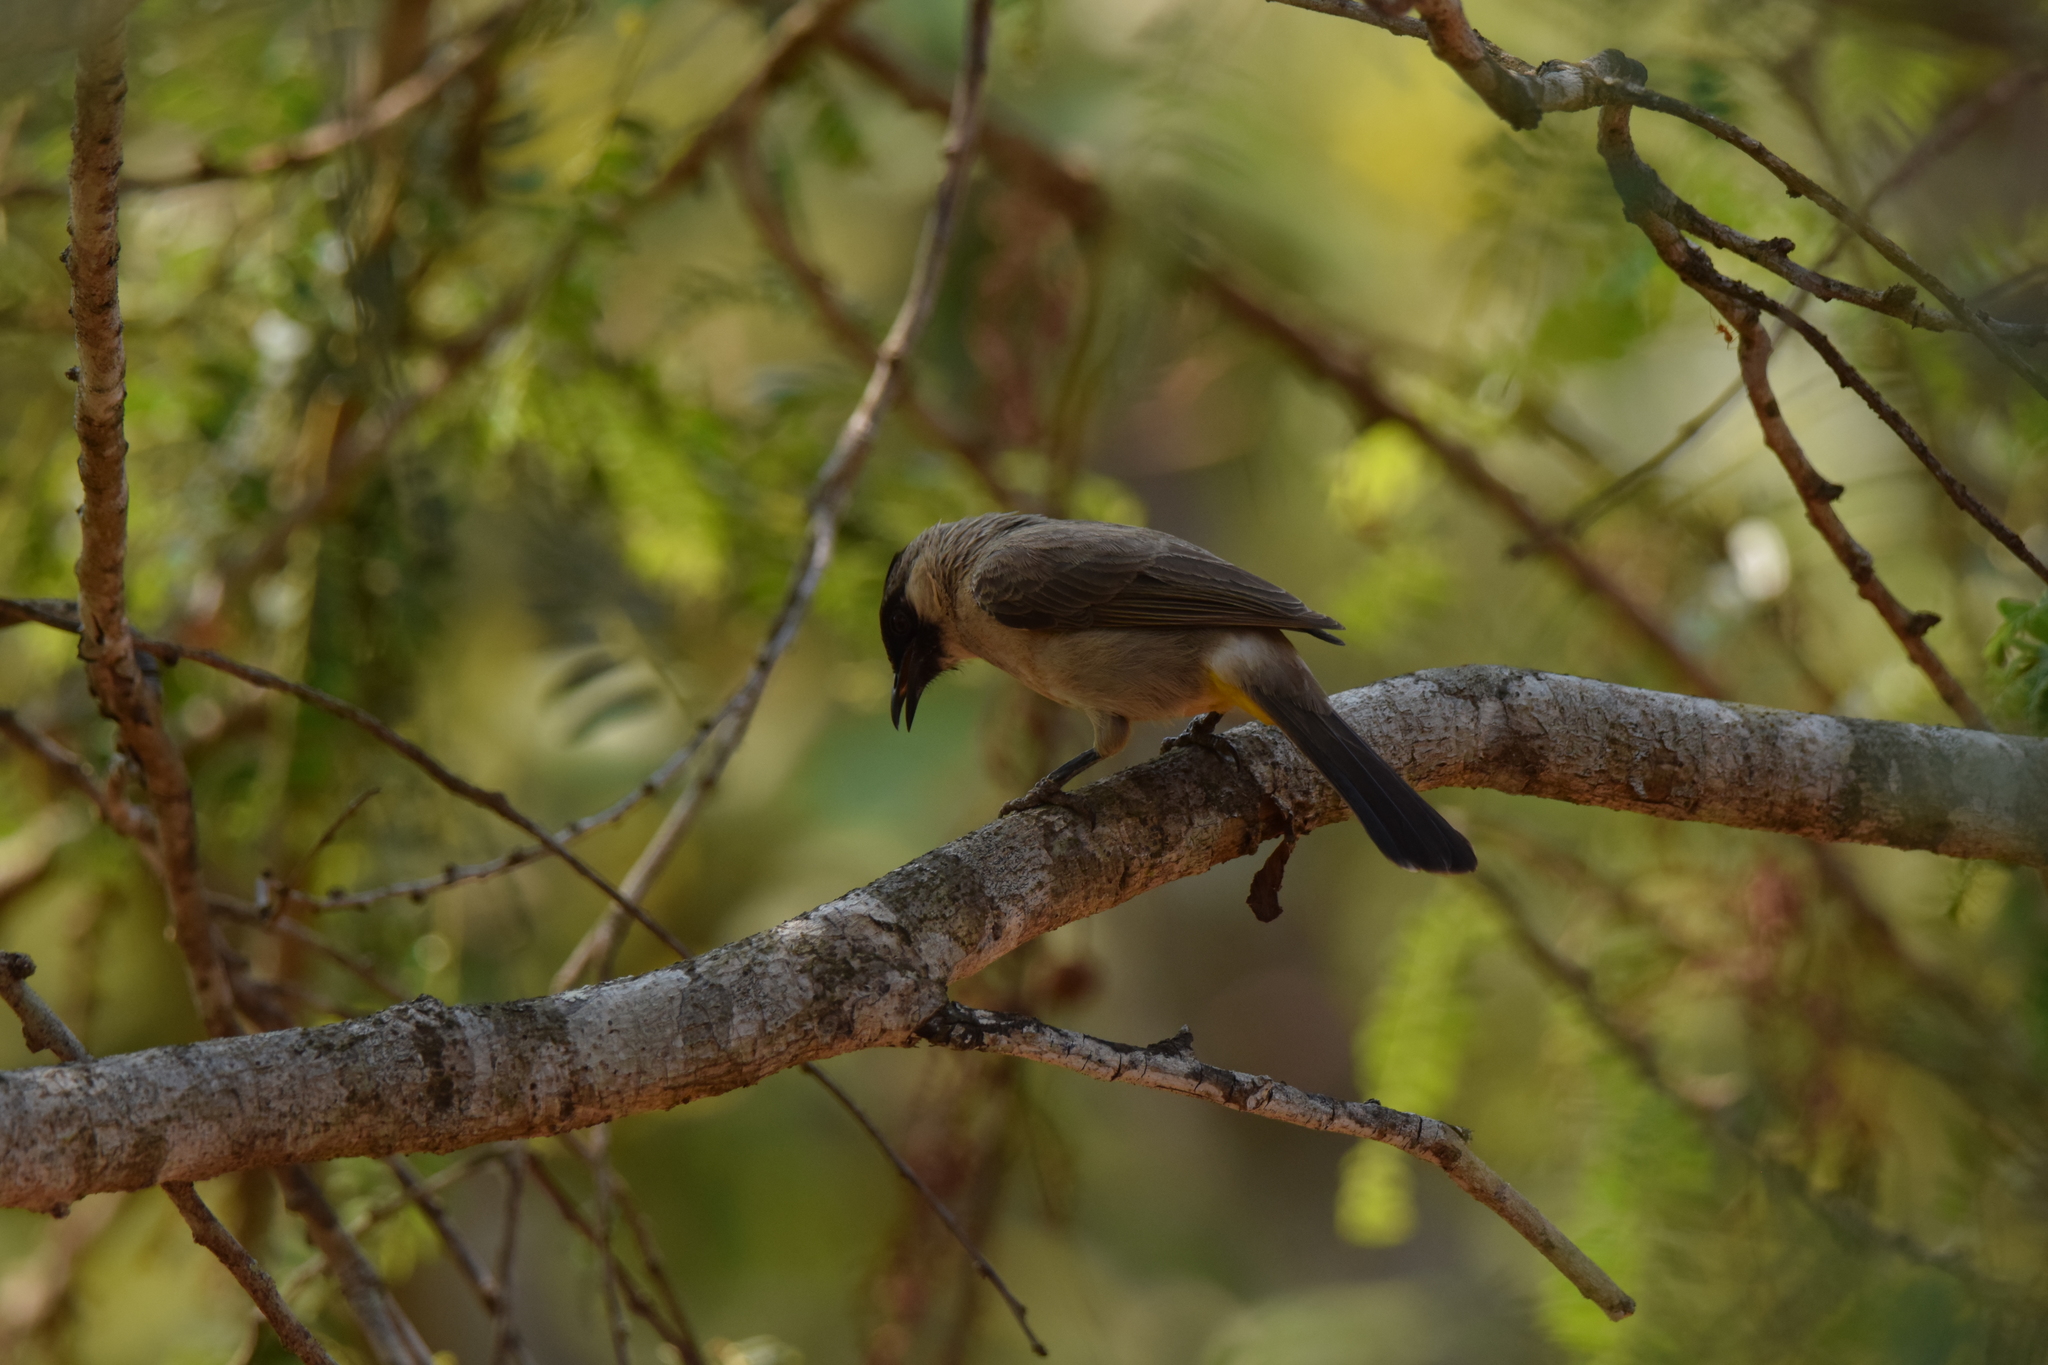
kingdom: Animalia
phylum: Chordata
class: Aves
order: Passeriformes
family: Pycnonotidae
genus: Pycnonotus
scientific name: Pycnonotus aurigaster
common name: Sooty-headed bulbul
